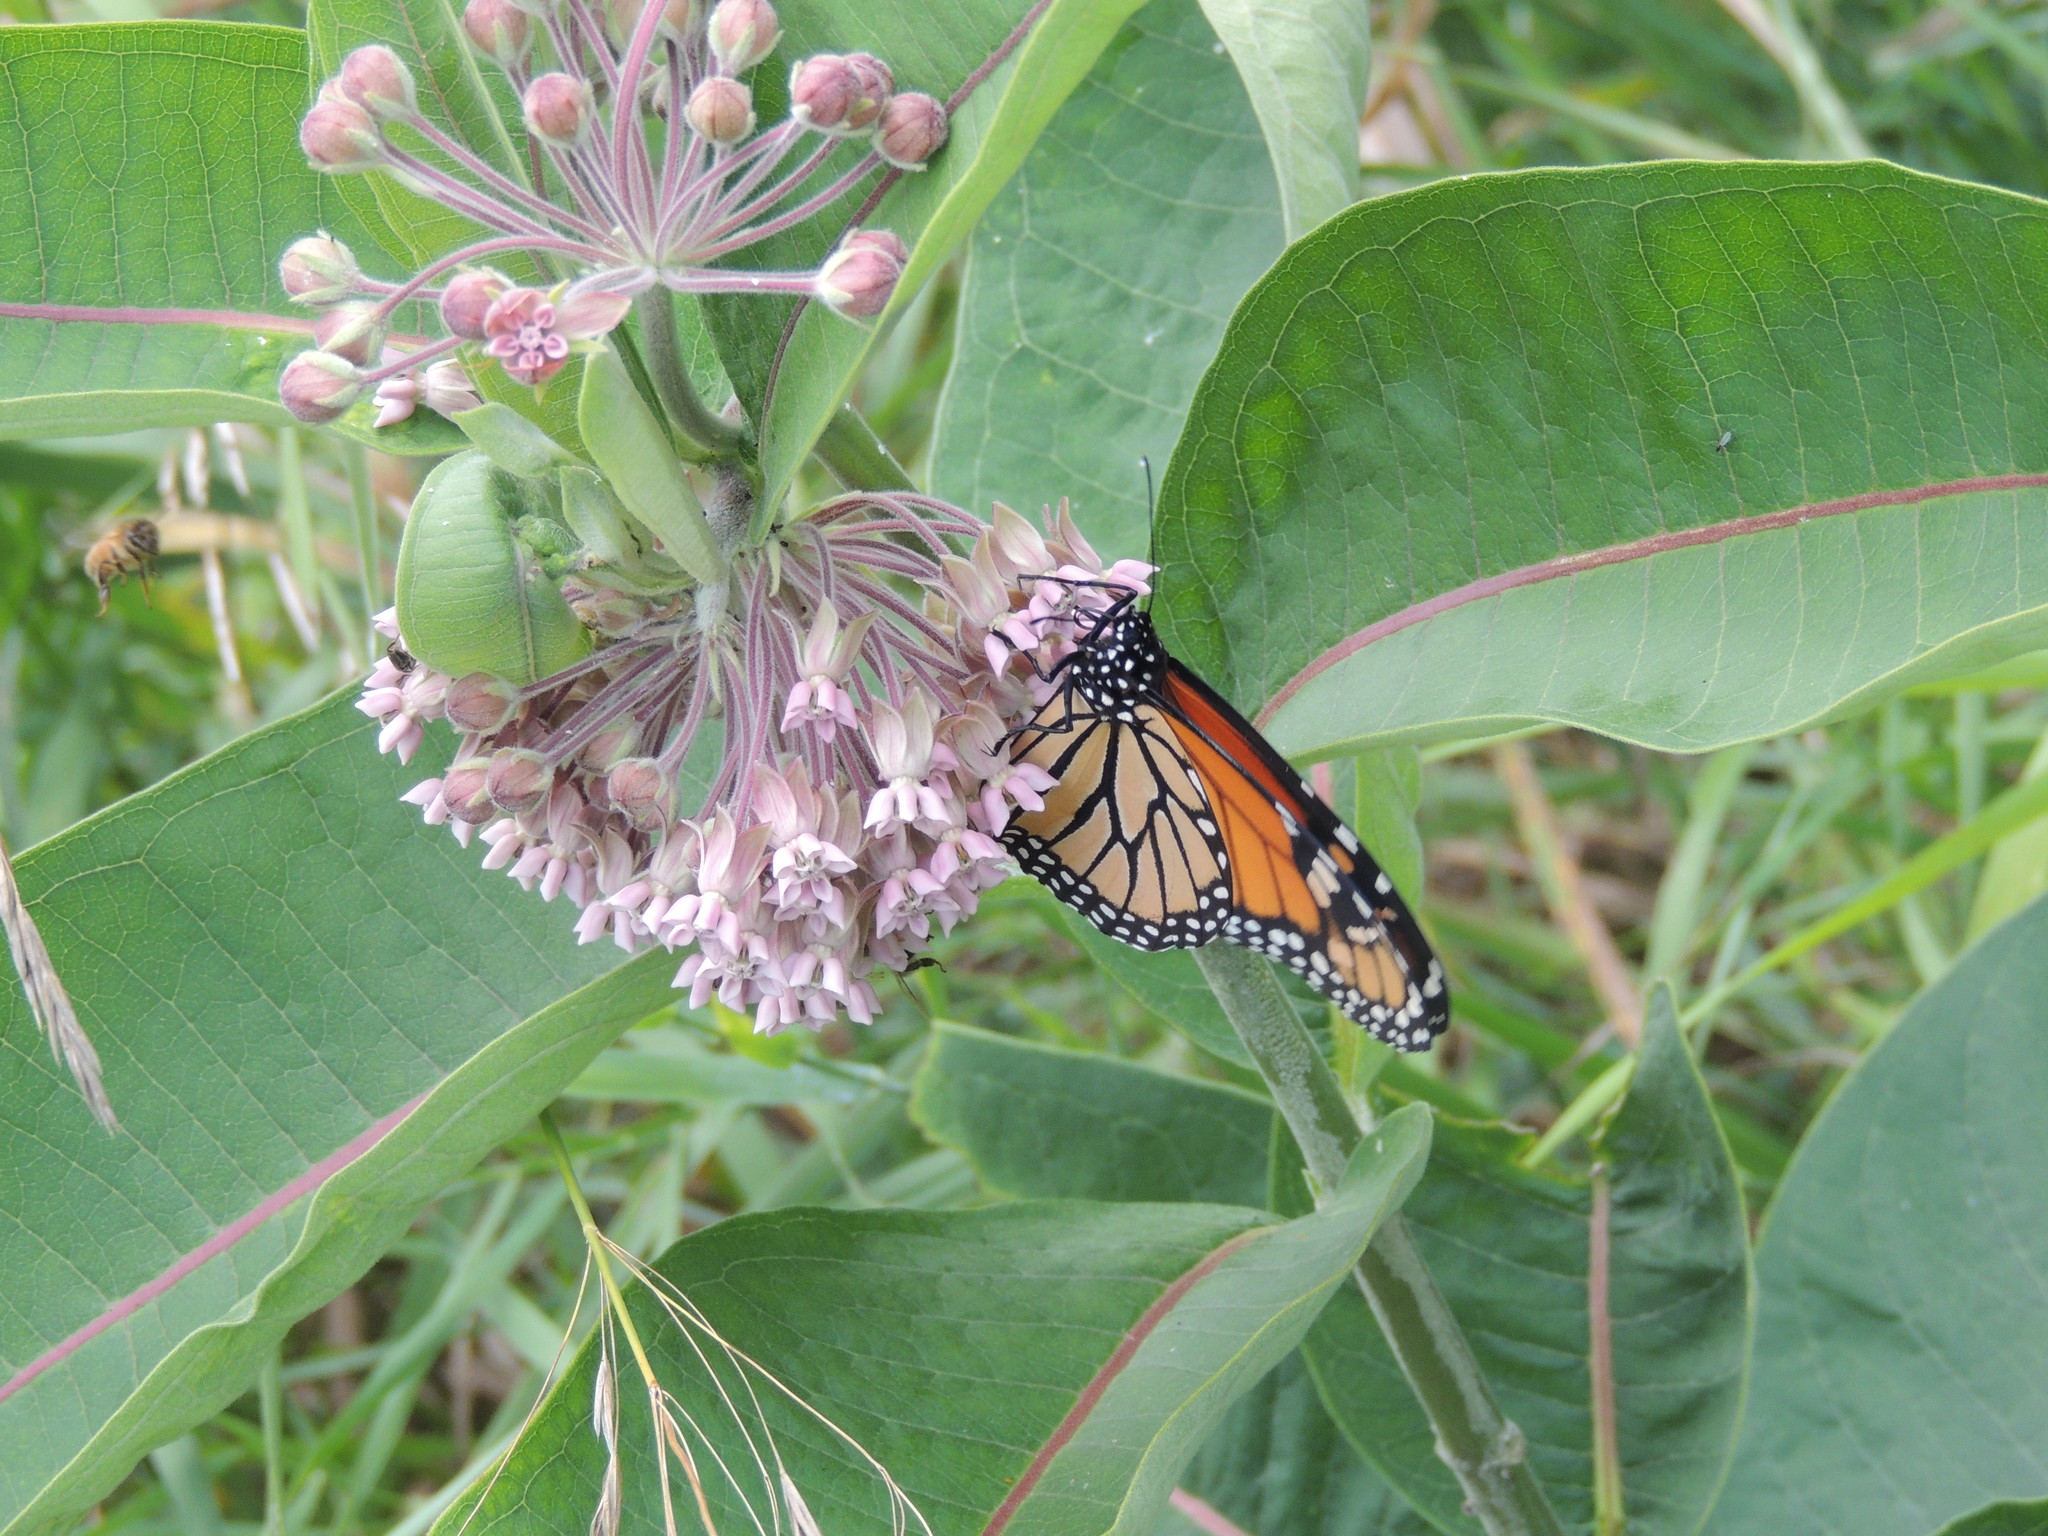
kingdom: Animalia
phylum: Arthropoda
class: Insecta
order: Lepidoptera
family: Nymphalidae
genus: Danaus
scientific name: Danaus plexippus
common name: Monarch
